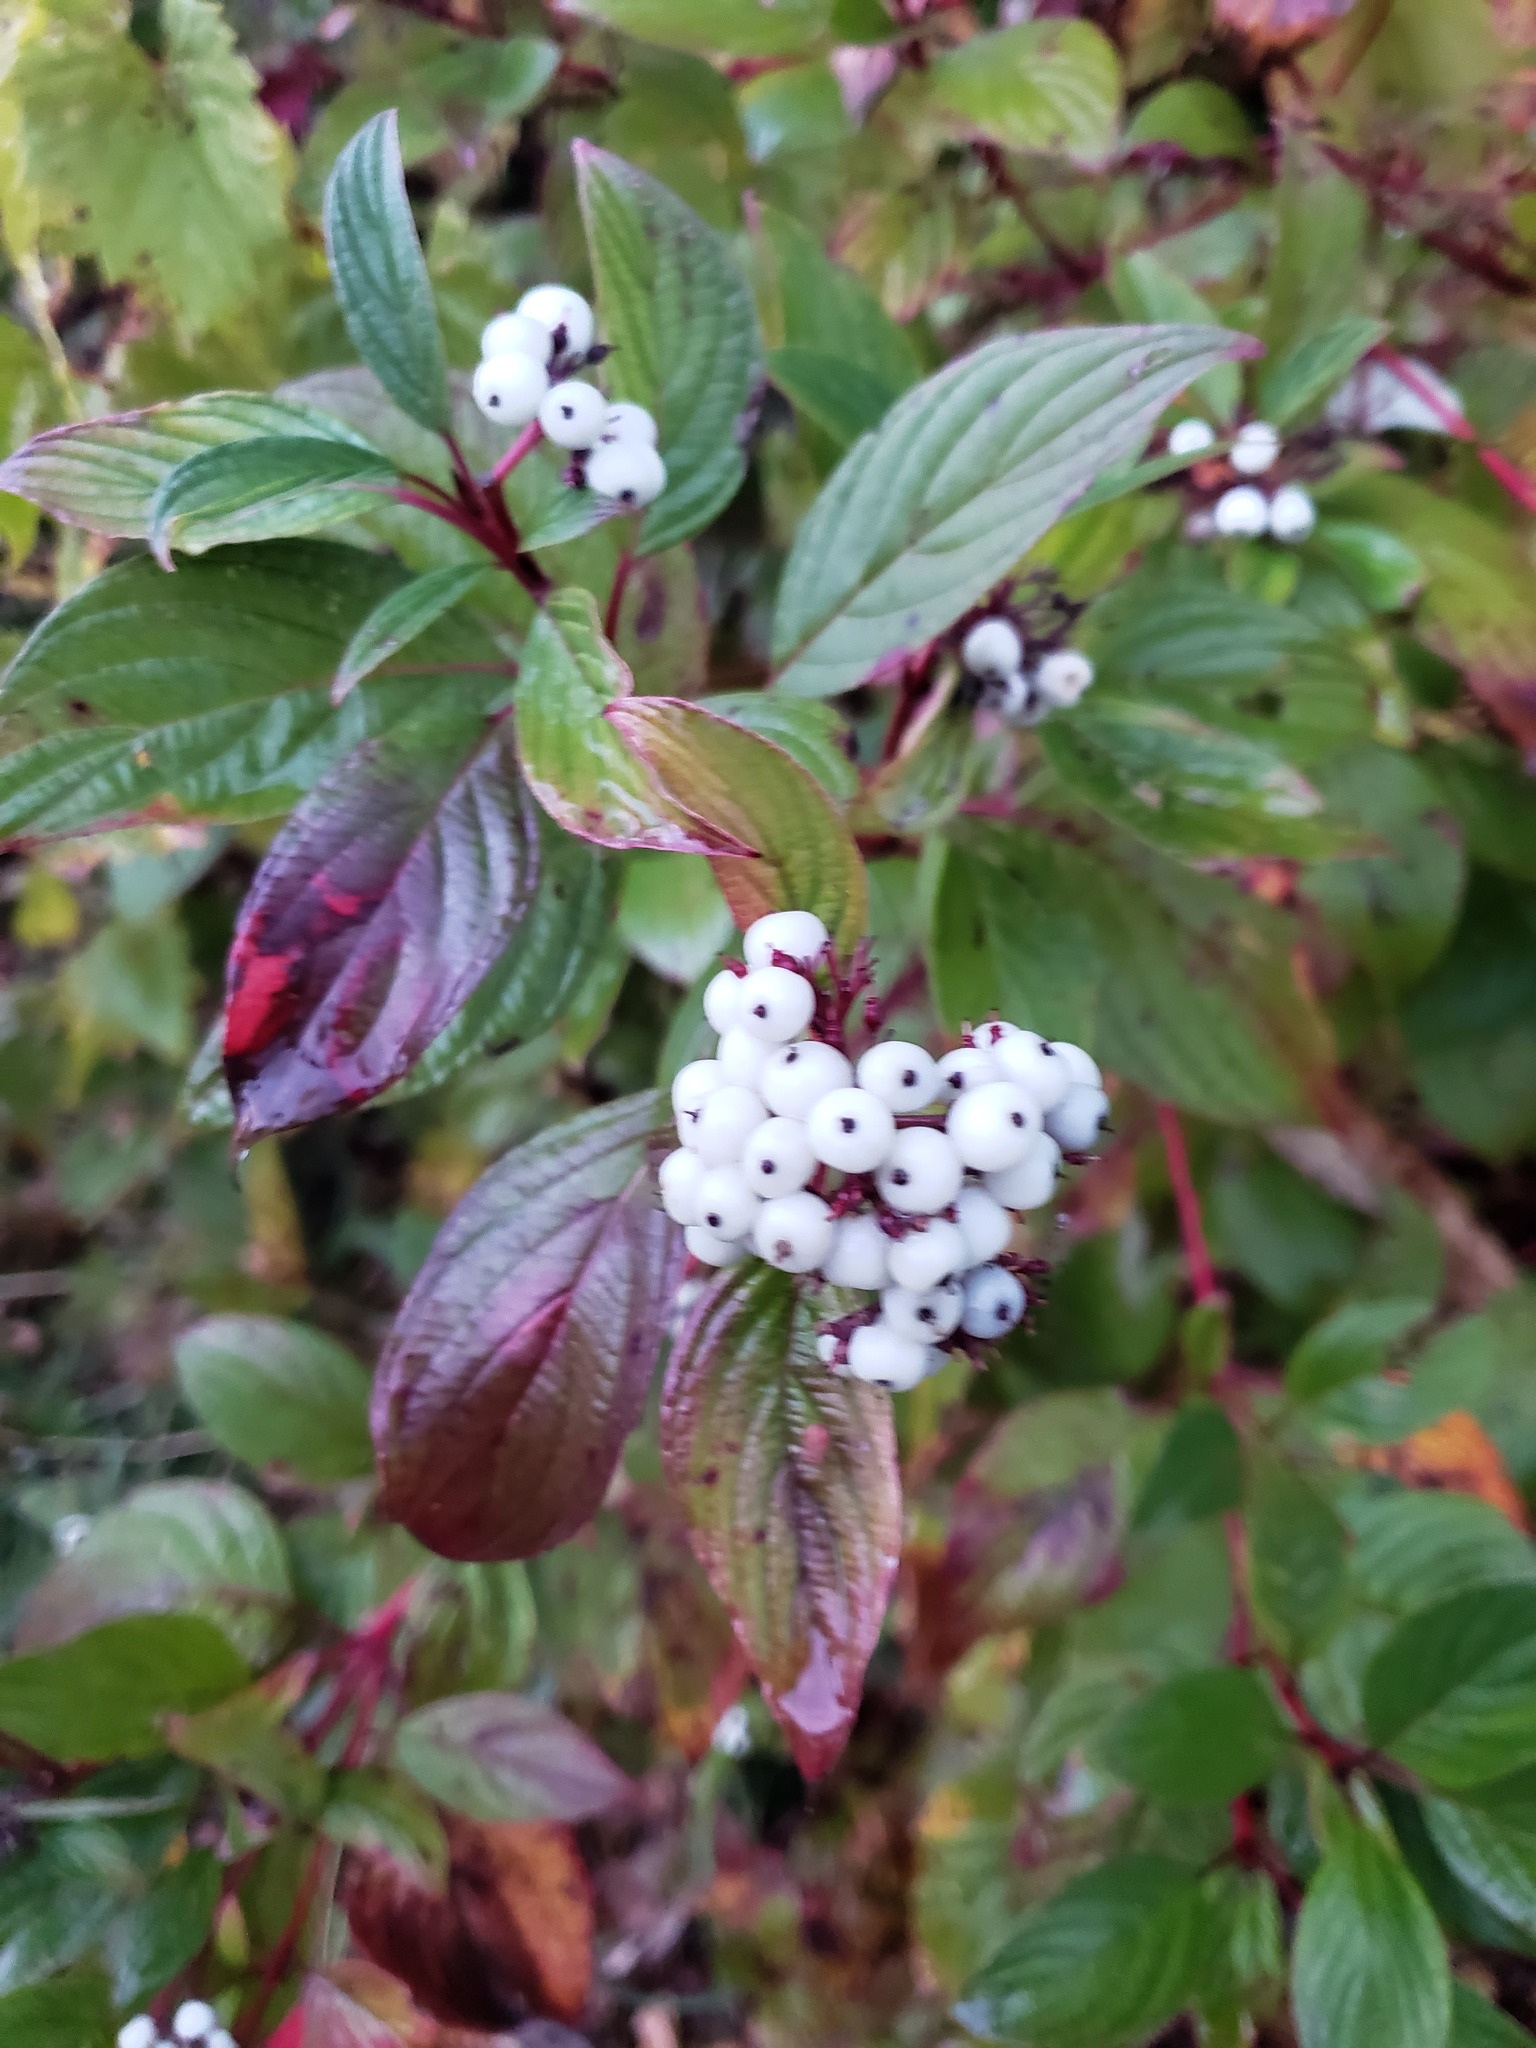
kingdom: Plantae
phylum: Tracheophyta
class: Magnoliopsida
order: Cornales
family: Cornaceae
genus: Cornus
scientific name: Cornus sericea
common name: Red-osier dogwood
